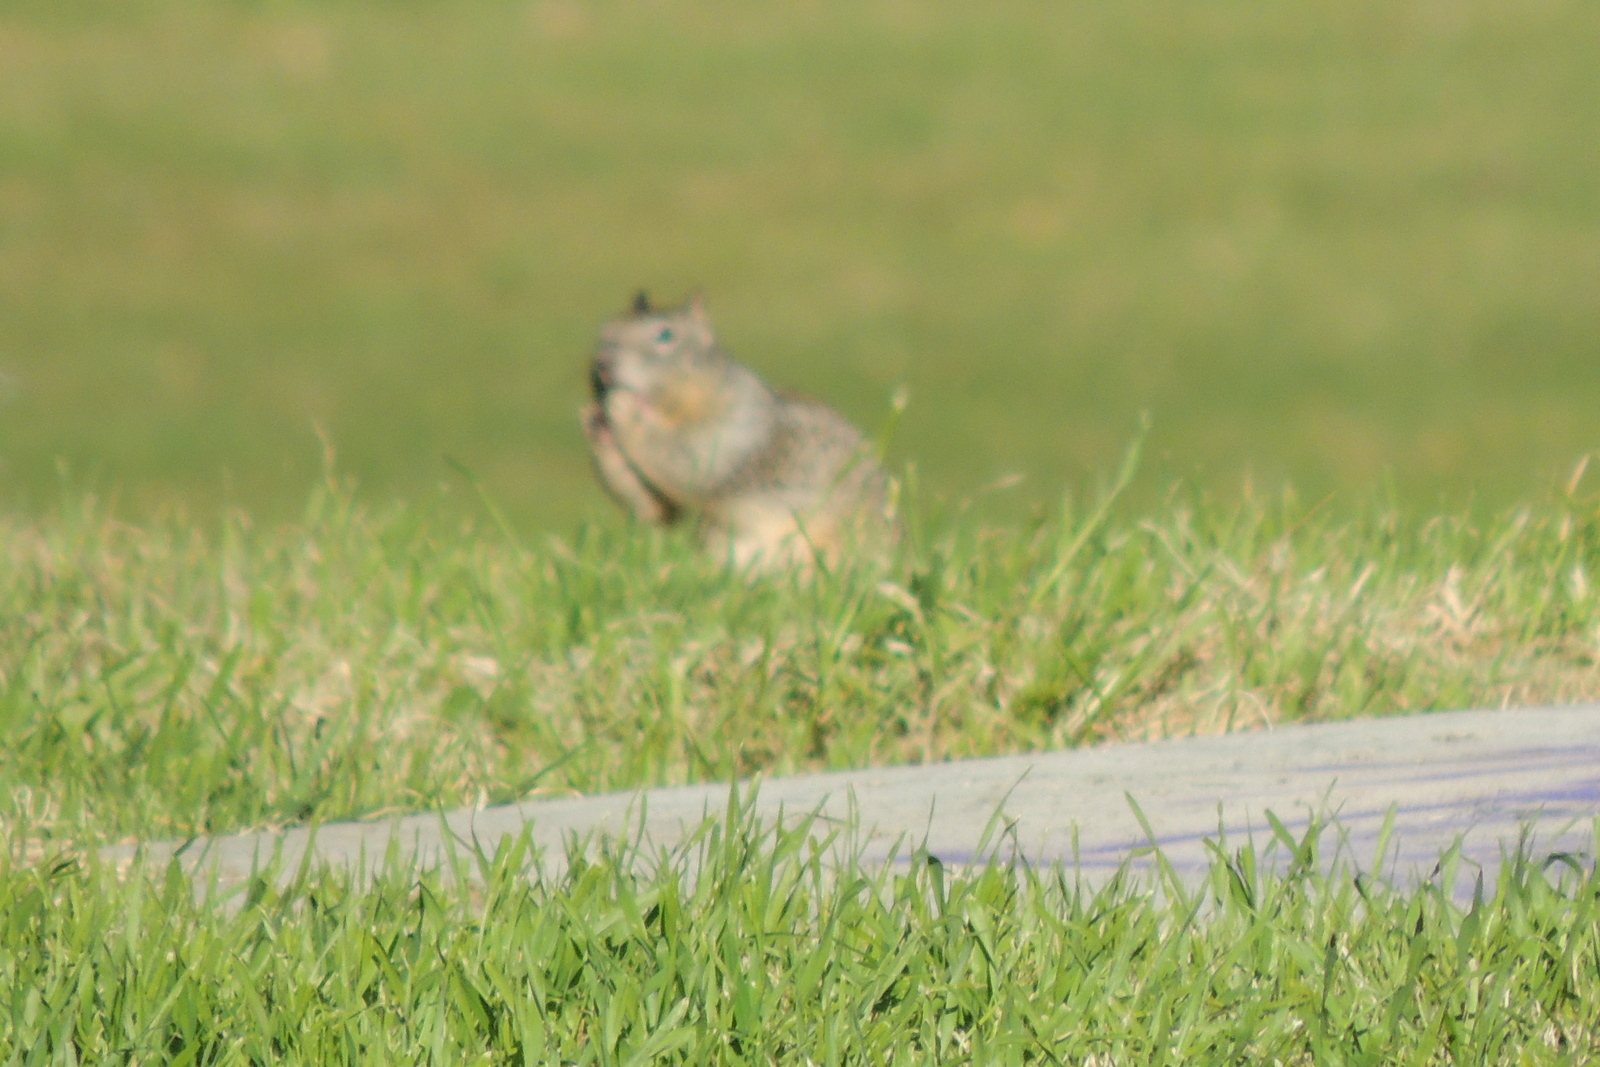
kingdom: Animalia
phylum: Chordata
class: Mammalia
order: Rodentia
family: Sciuridae
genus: Otospermophilus
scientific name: Otospermophilus beecheyi
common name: California ground squirrel
